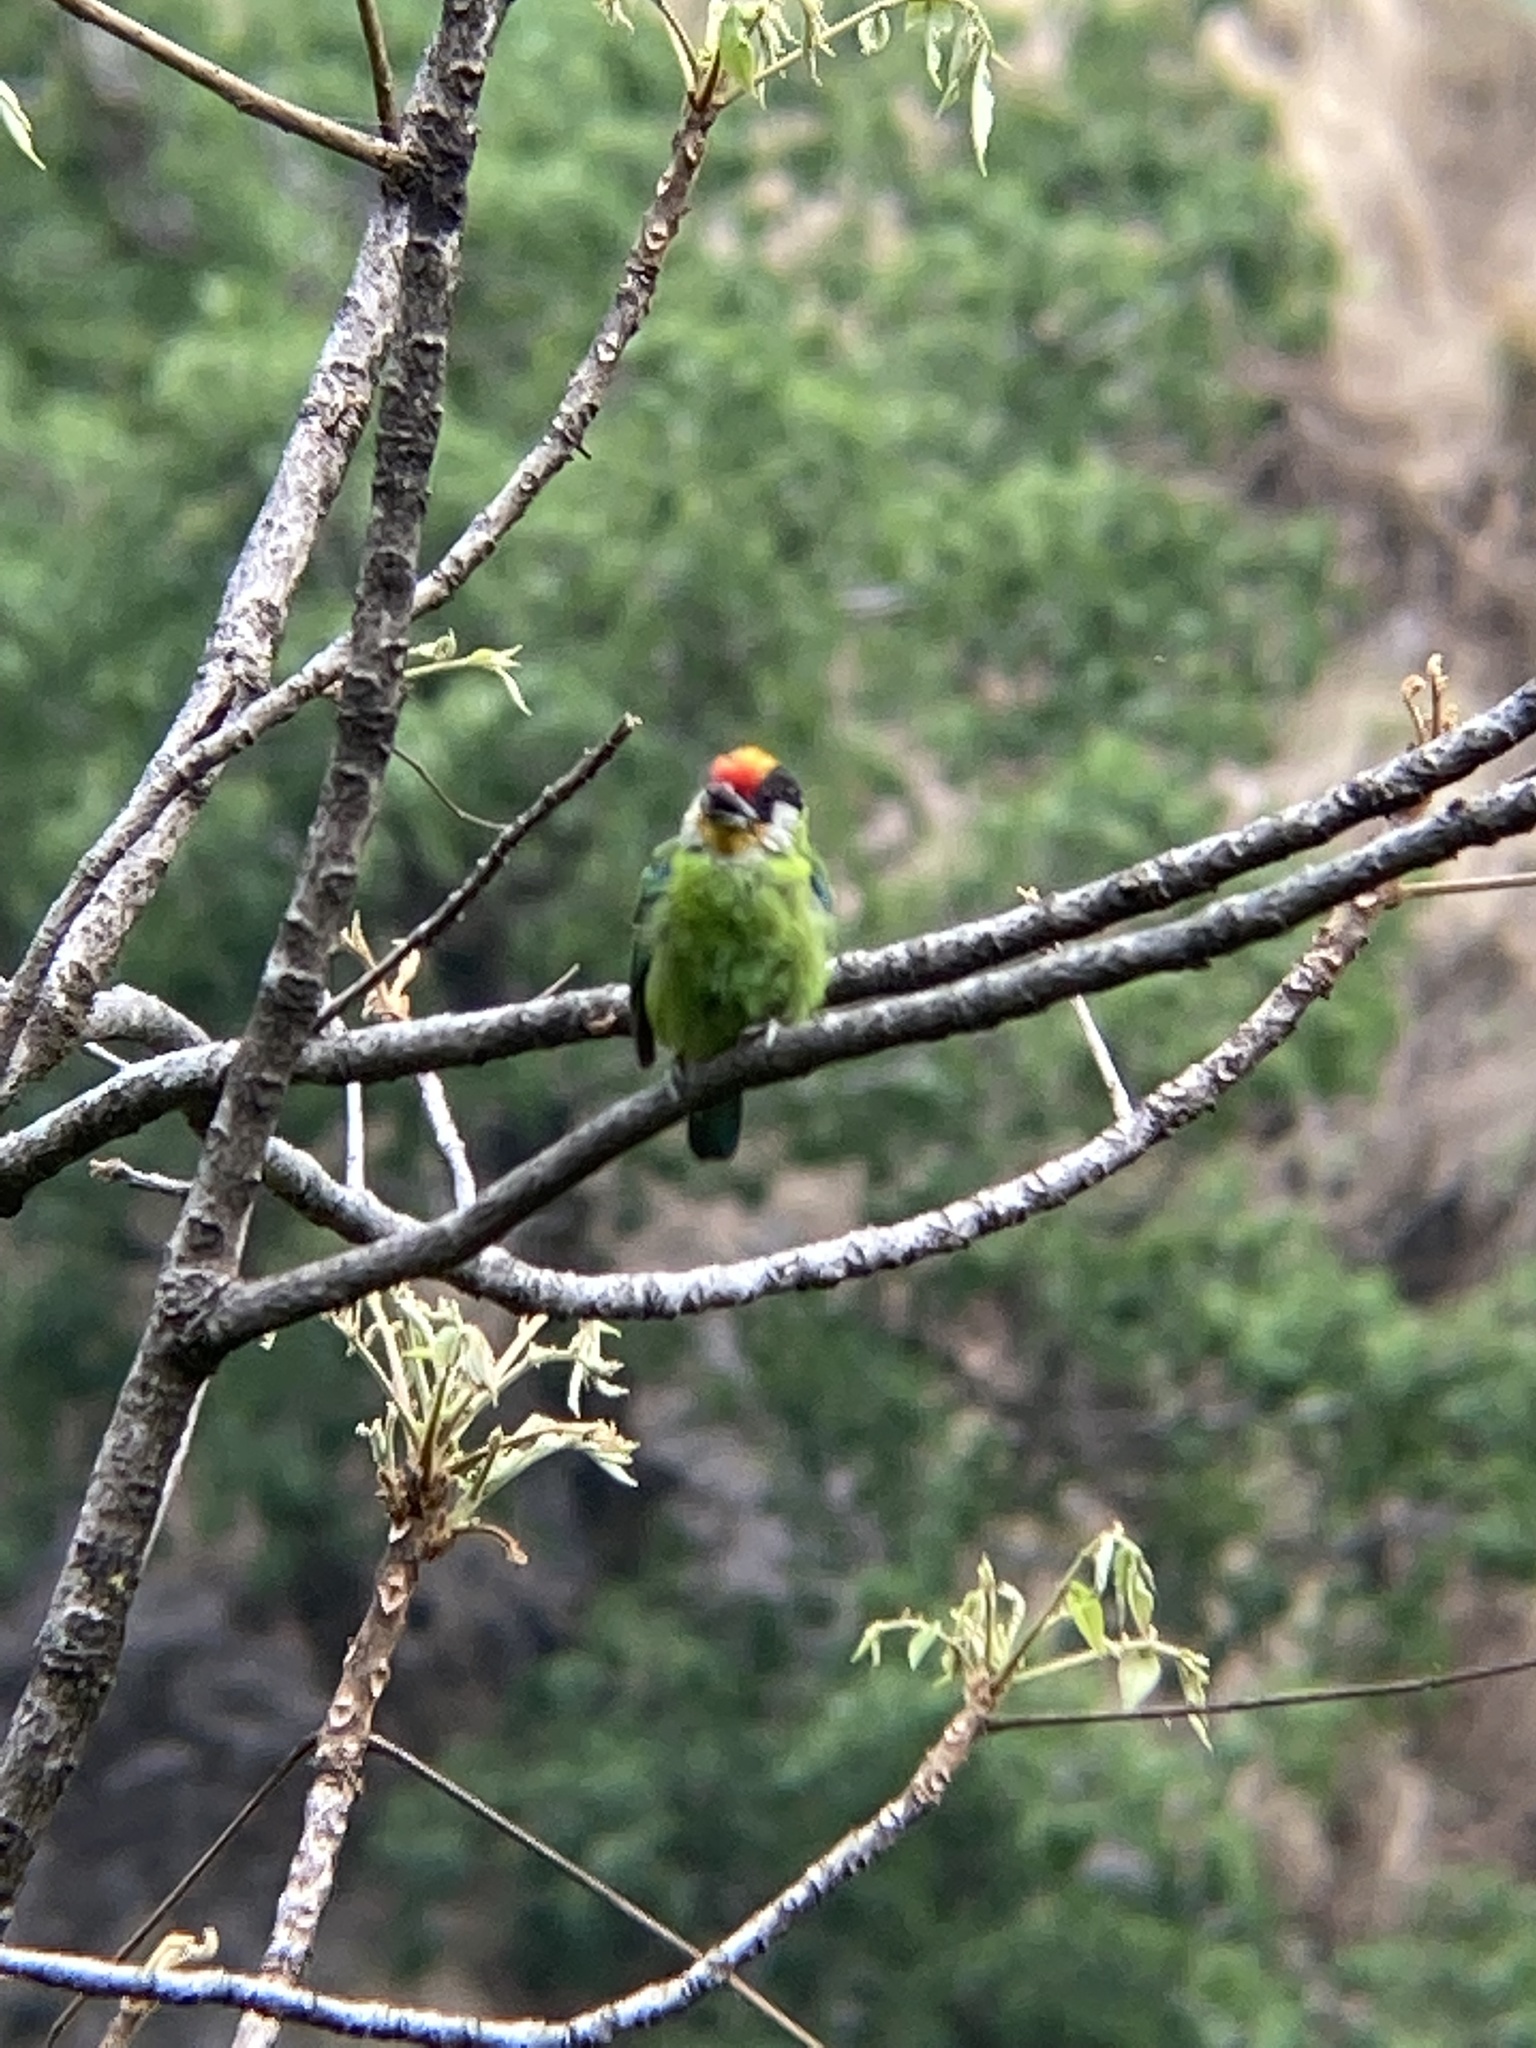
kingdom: Animalia
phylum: Chordata
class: Aves
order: Piciformes
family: Megalaimidae
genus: Psilopogon
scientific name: Psilopogon franklinii
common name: Golden-throated barbet
